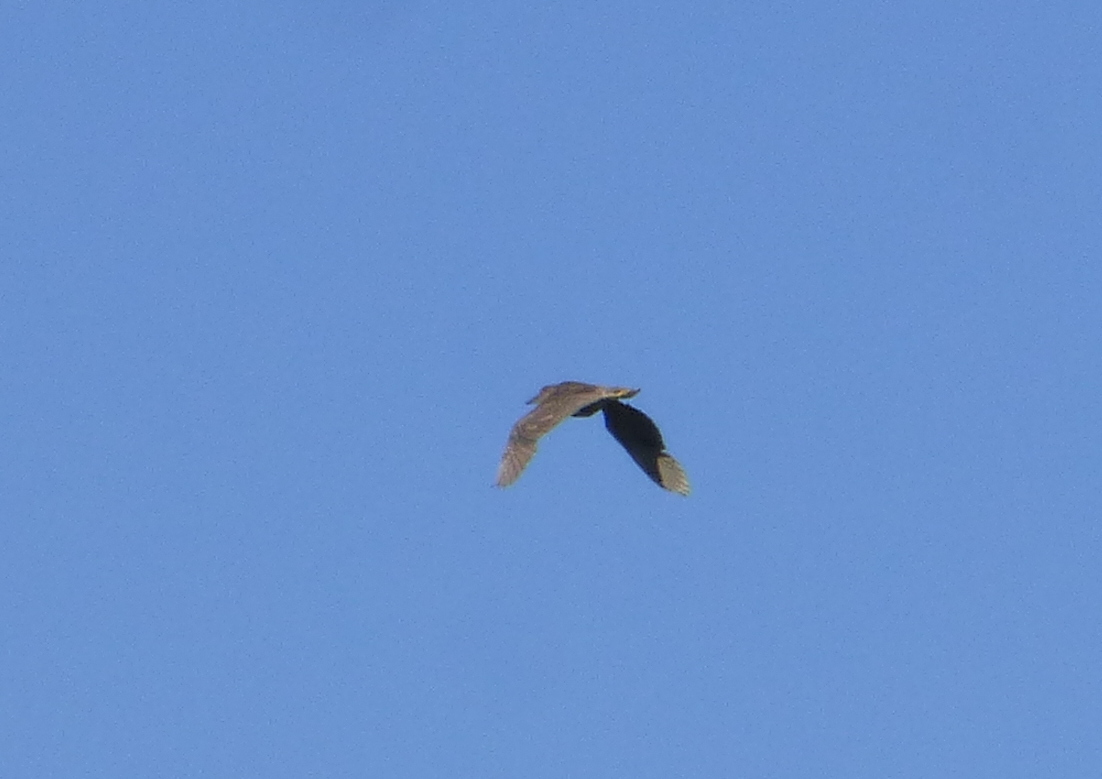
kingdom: Animalia
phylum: Chordata
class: Aves
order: Pelecaniformes
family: Ardeidae
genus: Nycticorax
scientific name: Nycticorax nycticorax
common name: Black-crowned night heron
